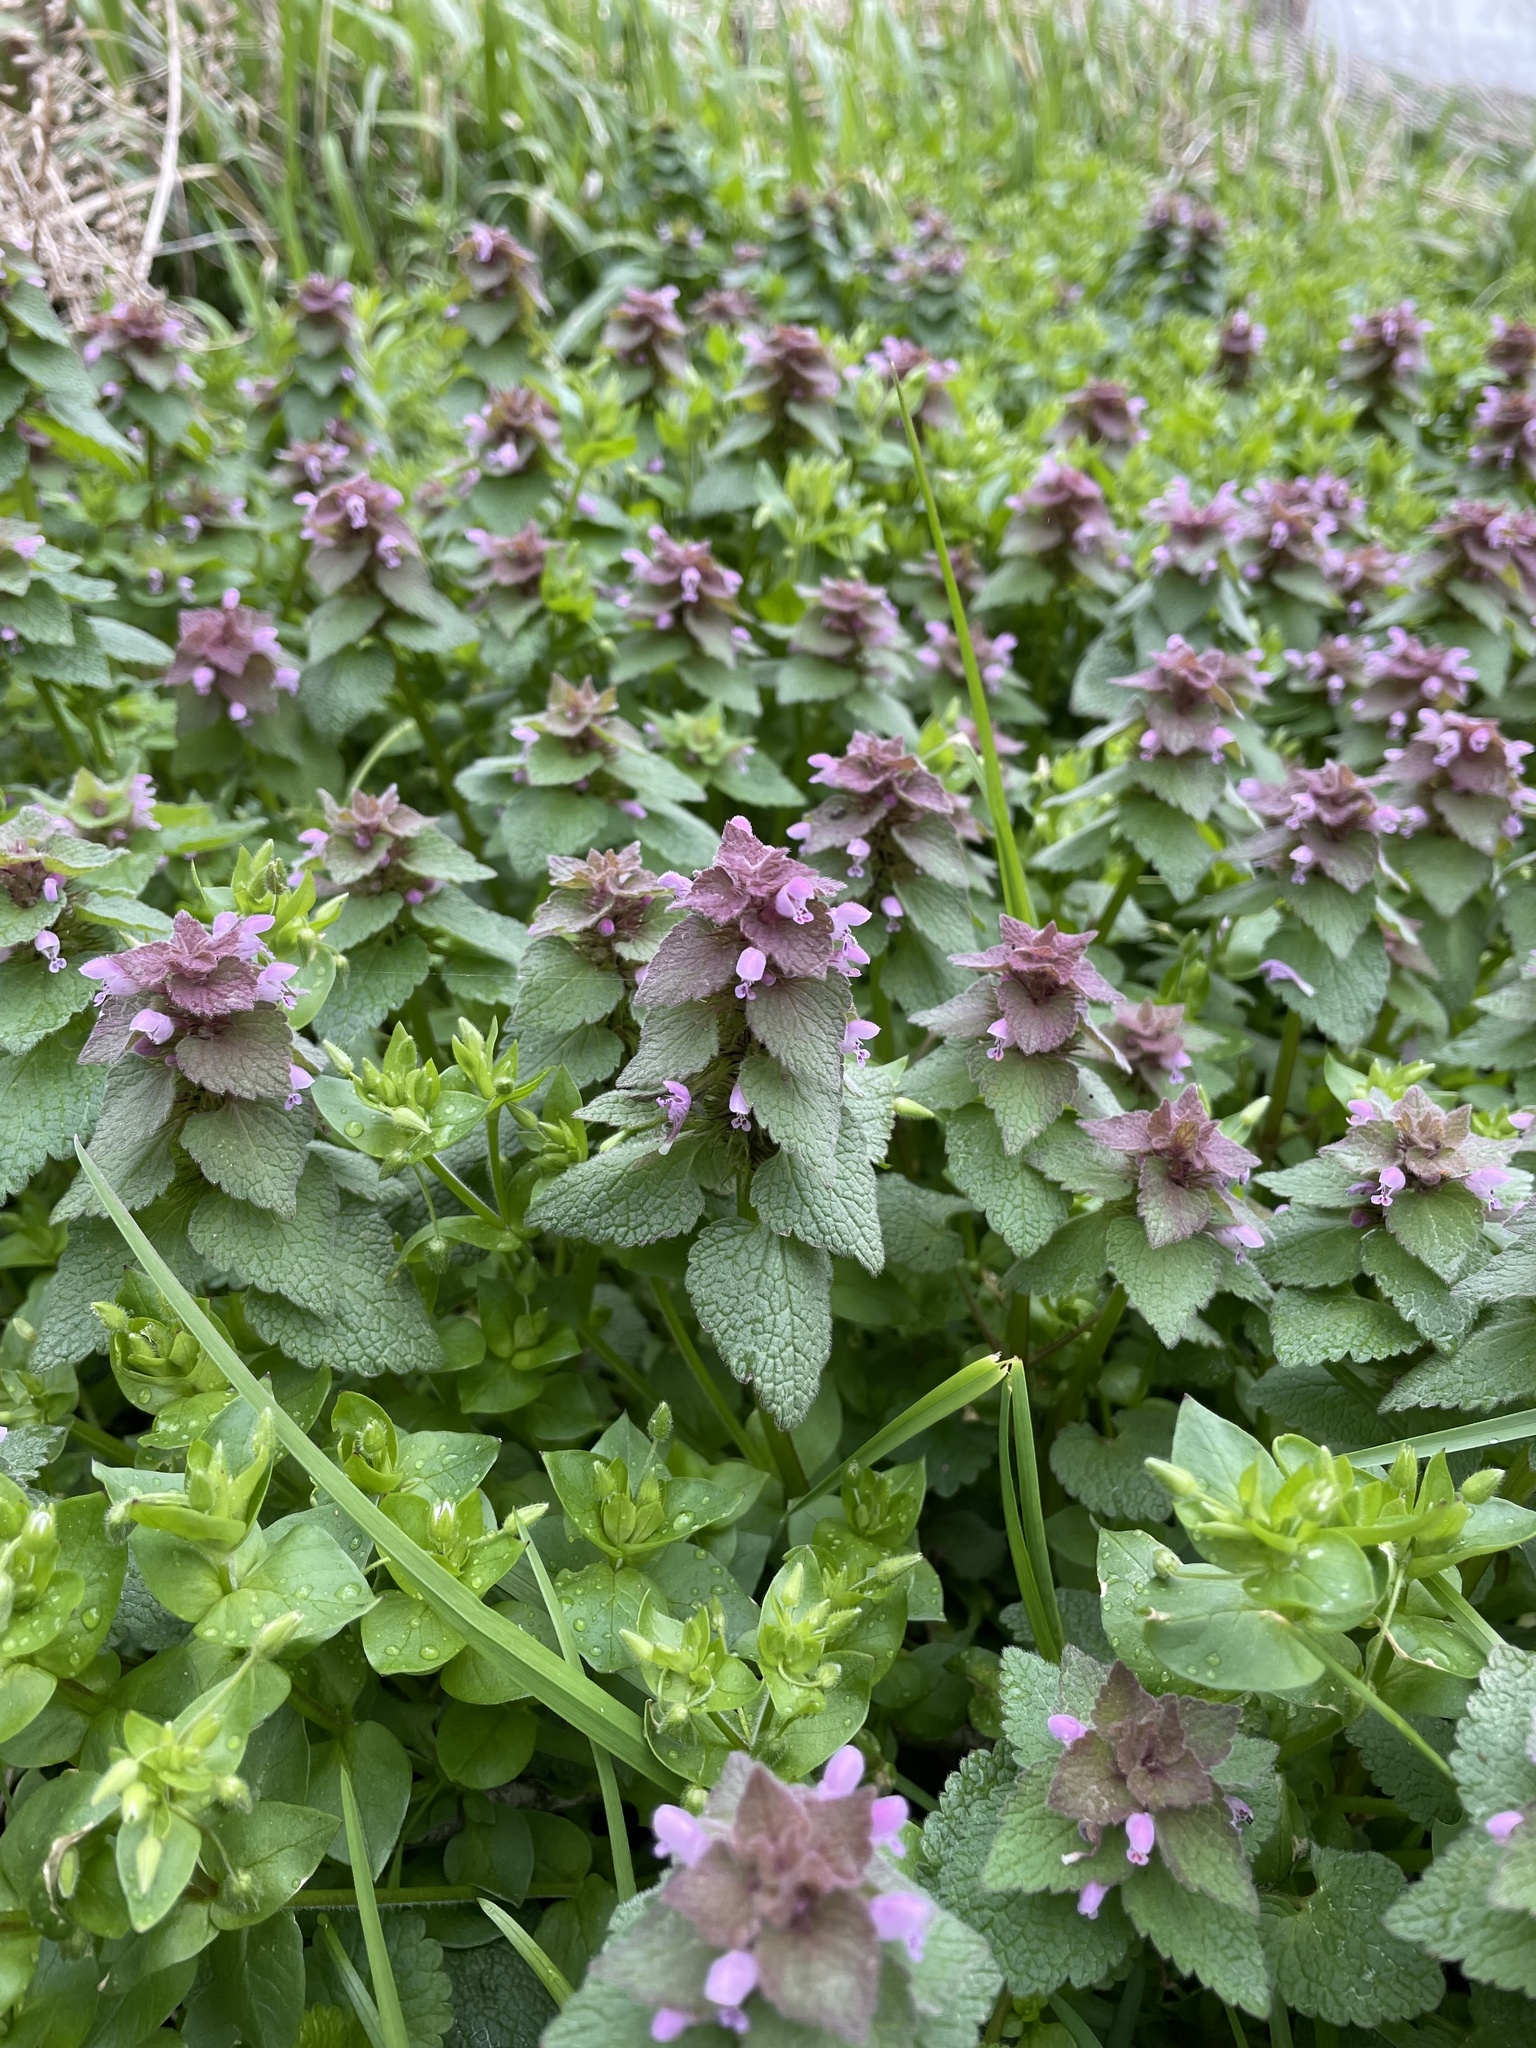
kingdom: Plantae
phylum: Tracheophyta
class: Magnoliopsida
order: Lamiales
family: Lamiaceae
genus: Lamium
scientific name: Lamium purpureum
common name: Red dead-nettle
